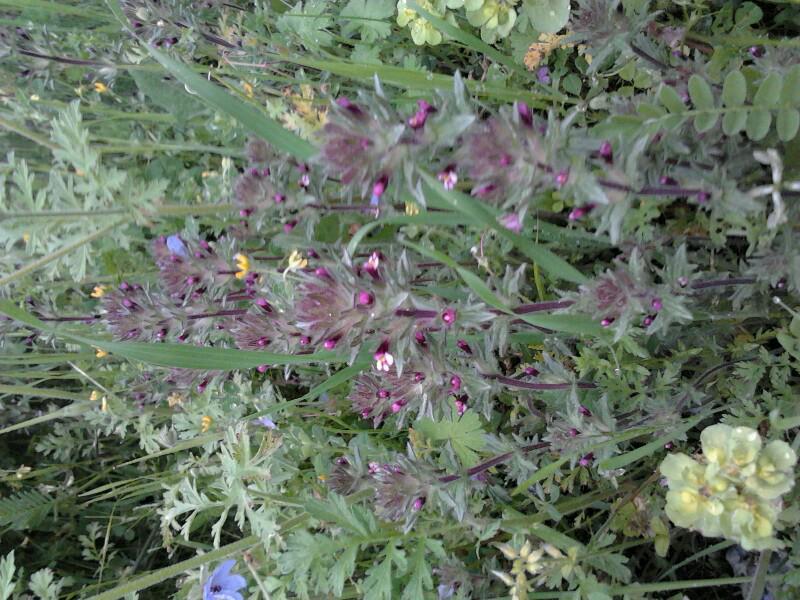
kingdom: Plantae
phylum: Tracheophyta
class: Magnoliopsida
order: Lamiales
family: Orobanchaceae
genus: Parentucellia
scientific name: Parentucellia latifolia
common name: Broadleaf glandweed
